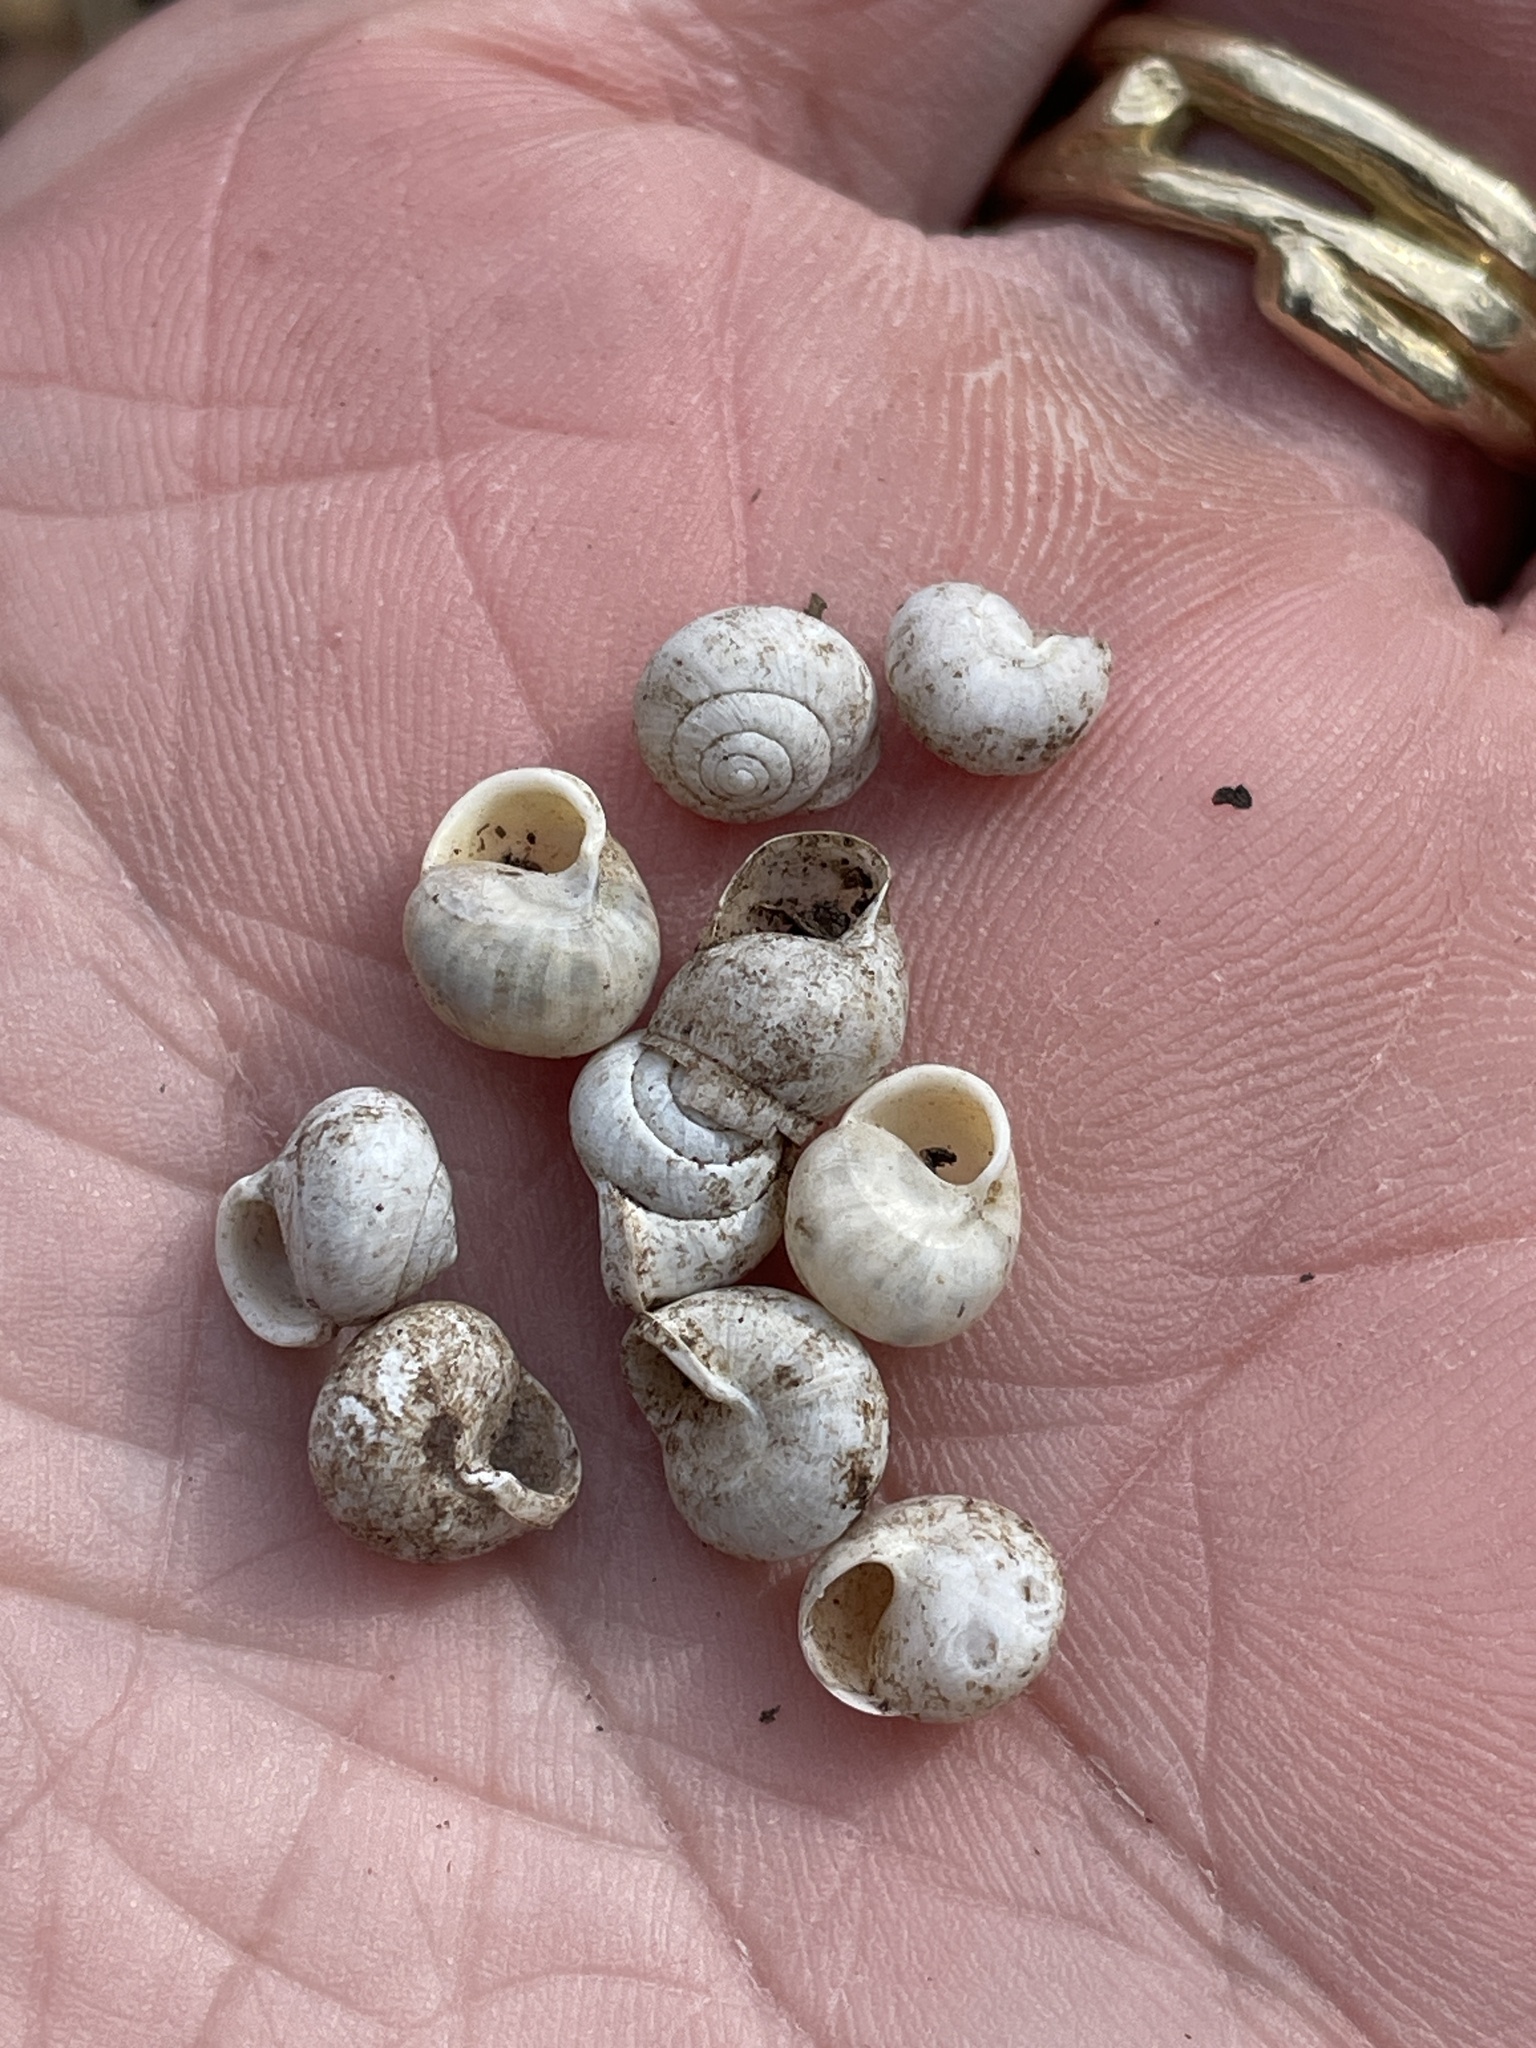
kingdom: Animalia
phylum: Mollusca
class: Gastropoda
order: Cycloneritida
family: Helicinidae
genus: Helicina
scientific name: Helicina orbiculata
